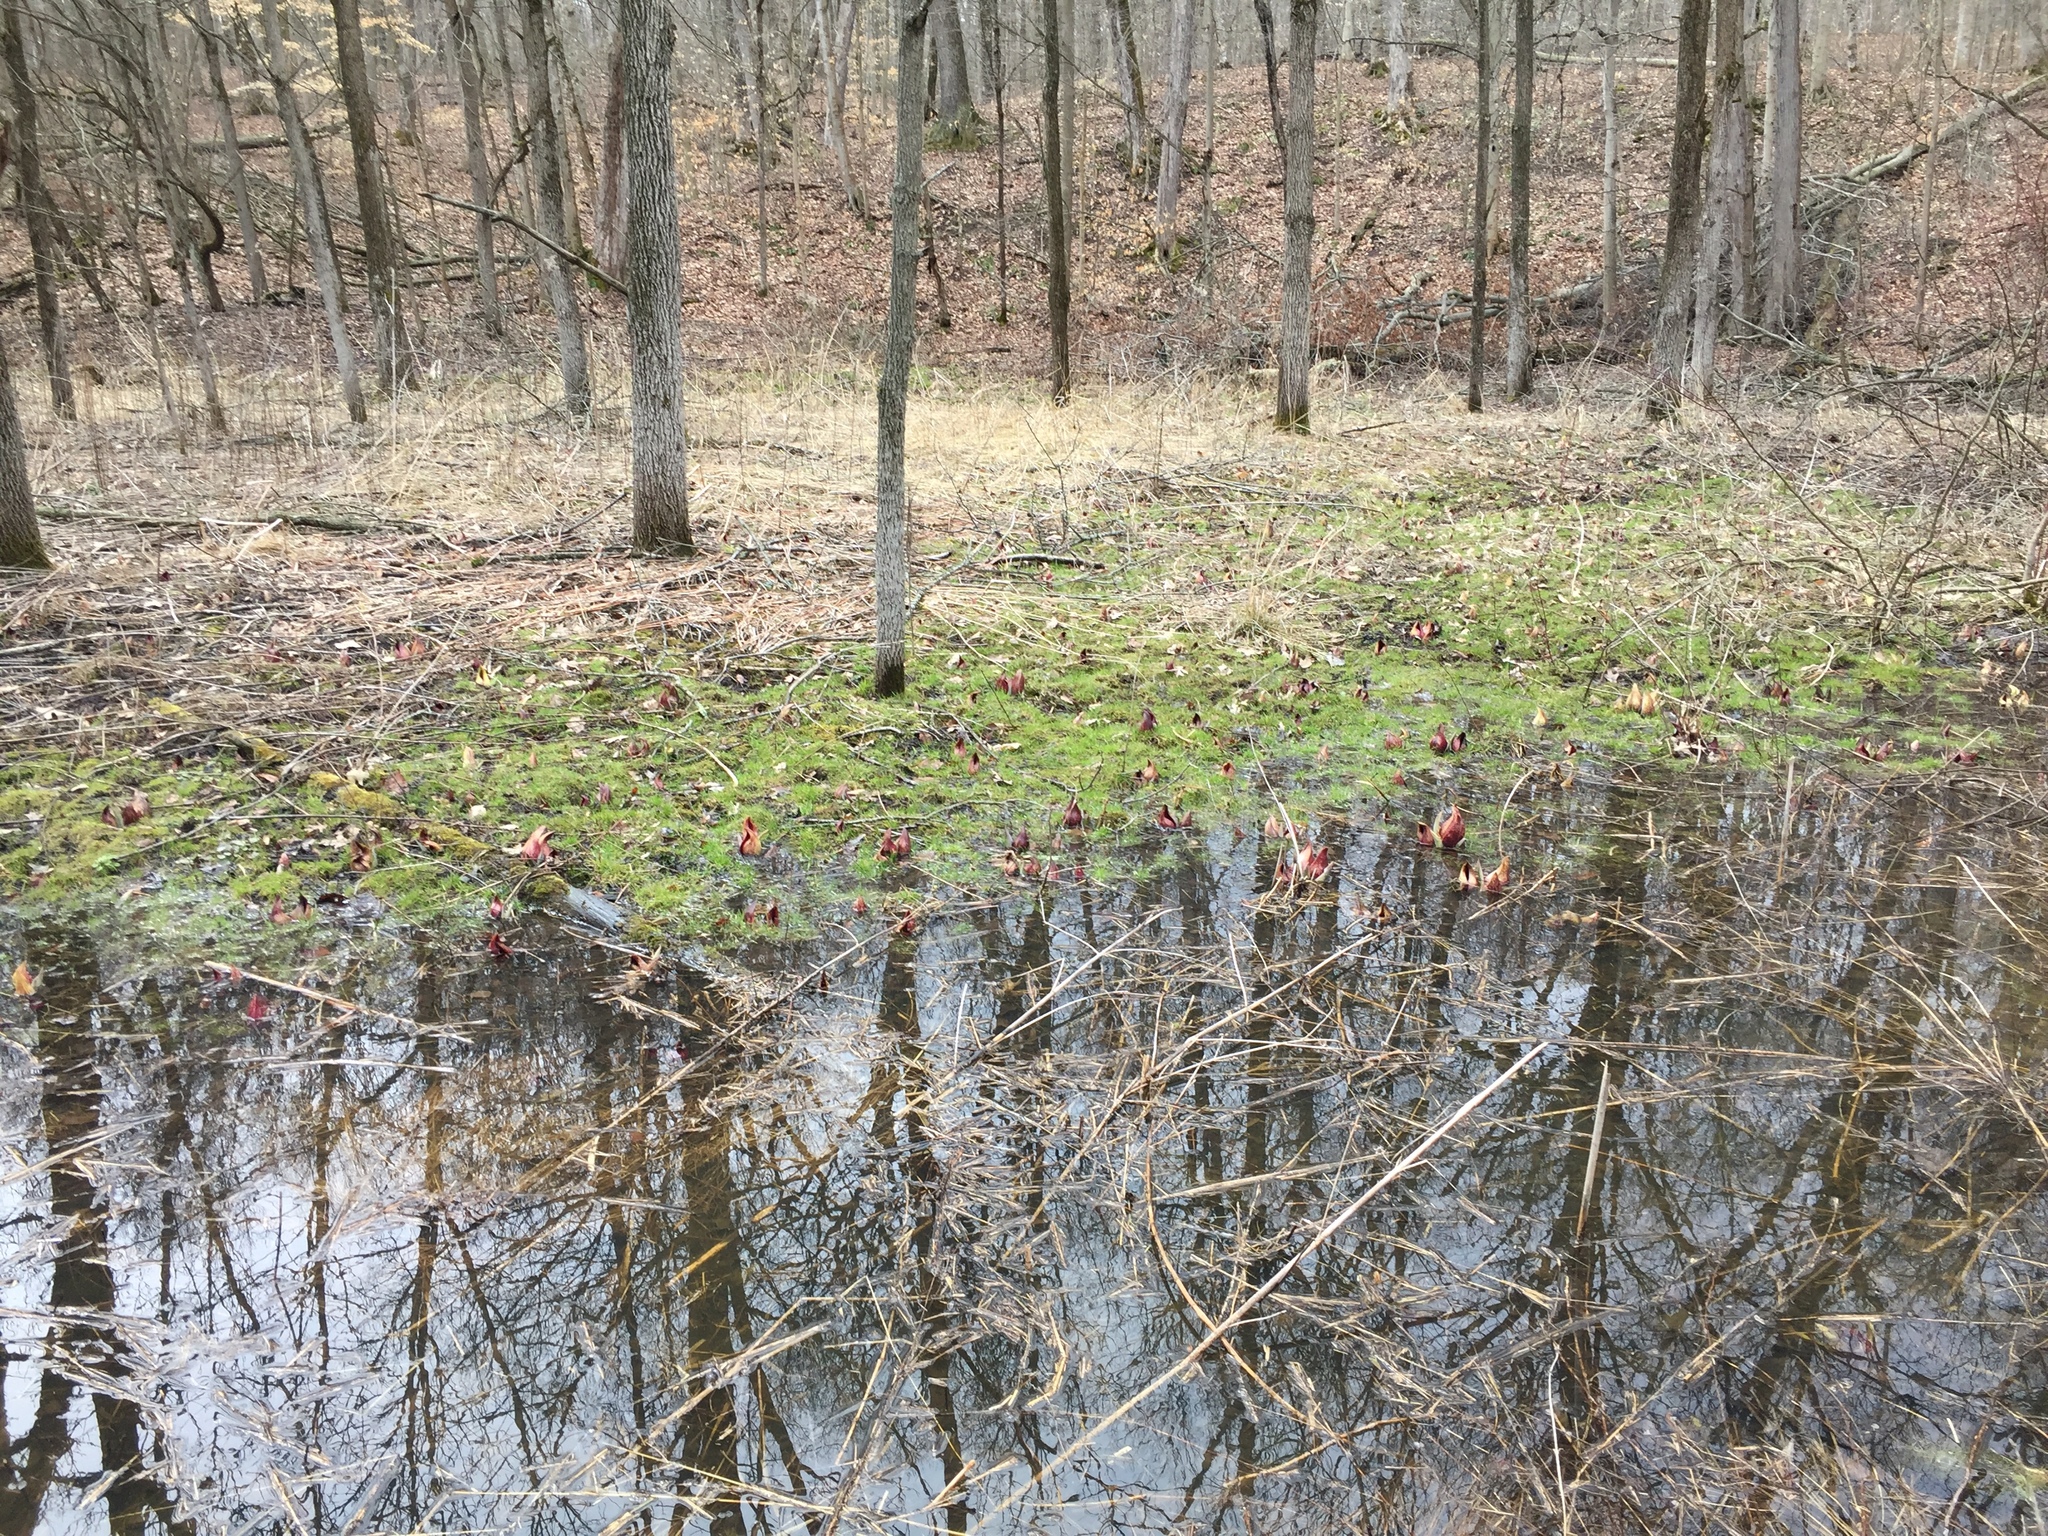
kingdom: Plantae
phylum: Tracheophyta
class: Liliopsida
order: Alismatales
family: Araceae
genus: Symplocarpus
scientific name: Symplocarpus foetidus
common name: Eastern skunk cabbage
